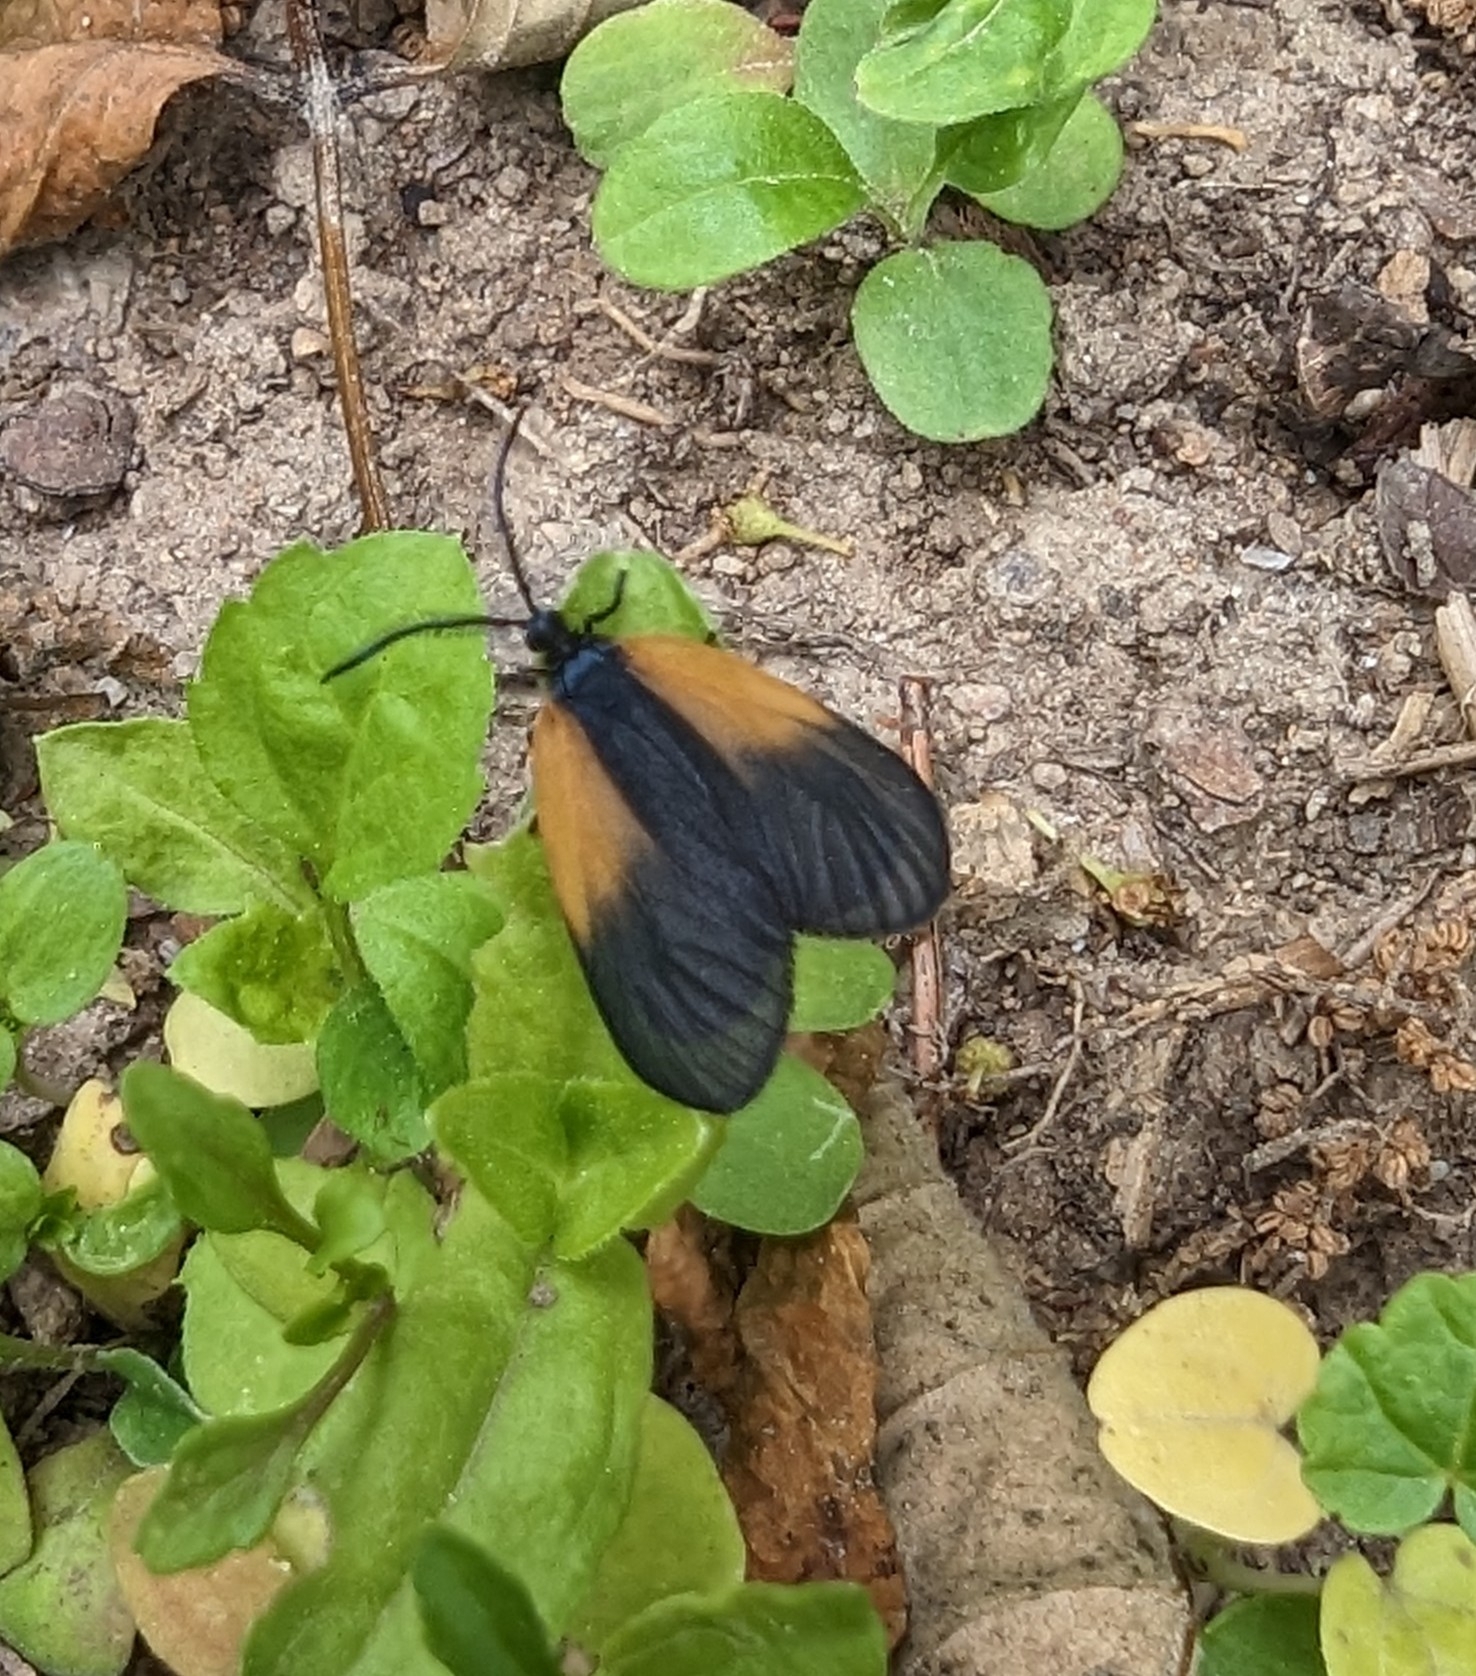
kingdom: Animalia
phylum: Arthropoda
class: Insecta
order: Lepidoptera
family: Zygaenidae
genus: Malthaca
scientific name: Malthaca dimidiata
